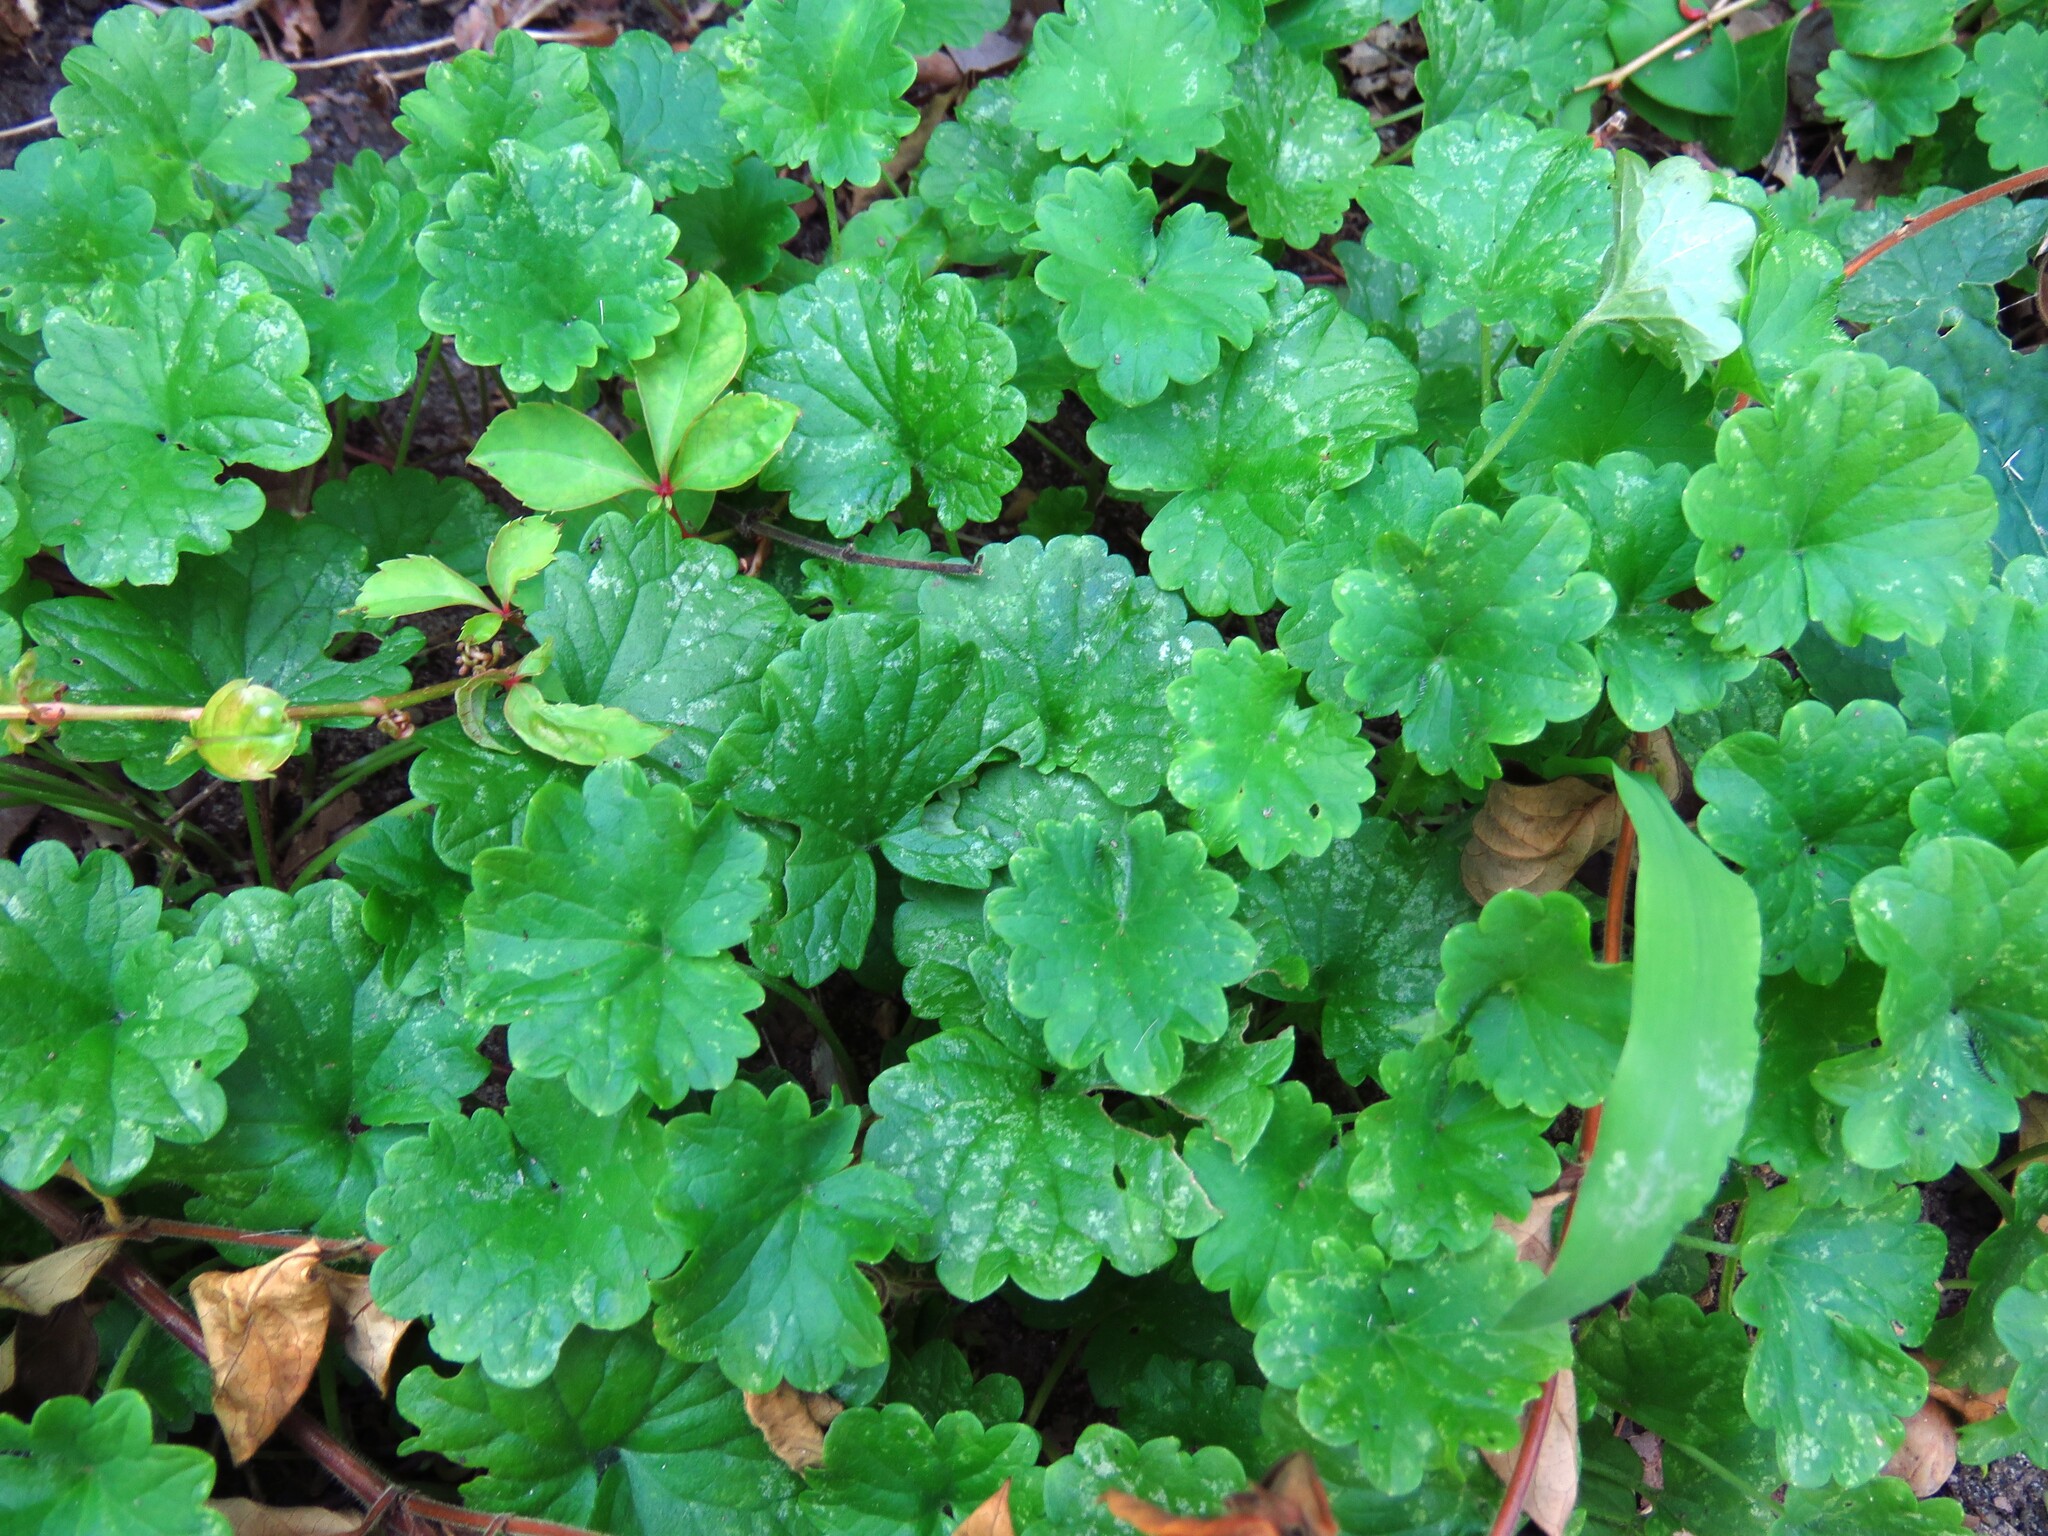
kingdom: Plantae
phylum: Tracheophyta
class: Magnoliopsida
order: Lamiales
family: Lamiaceae
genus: Glechoma
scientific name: Glechoma hederacea
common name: Ground ivy
